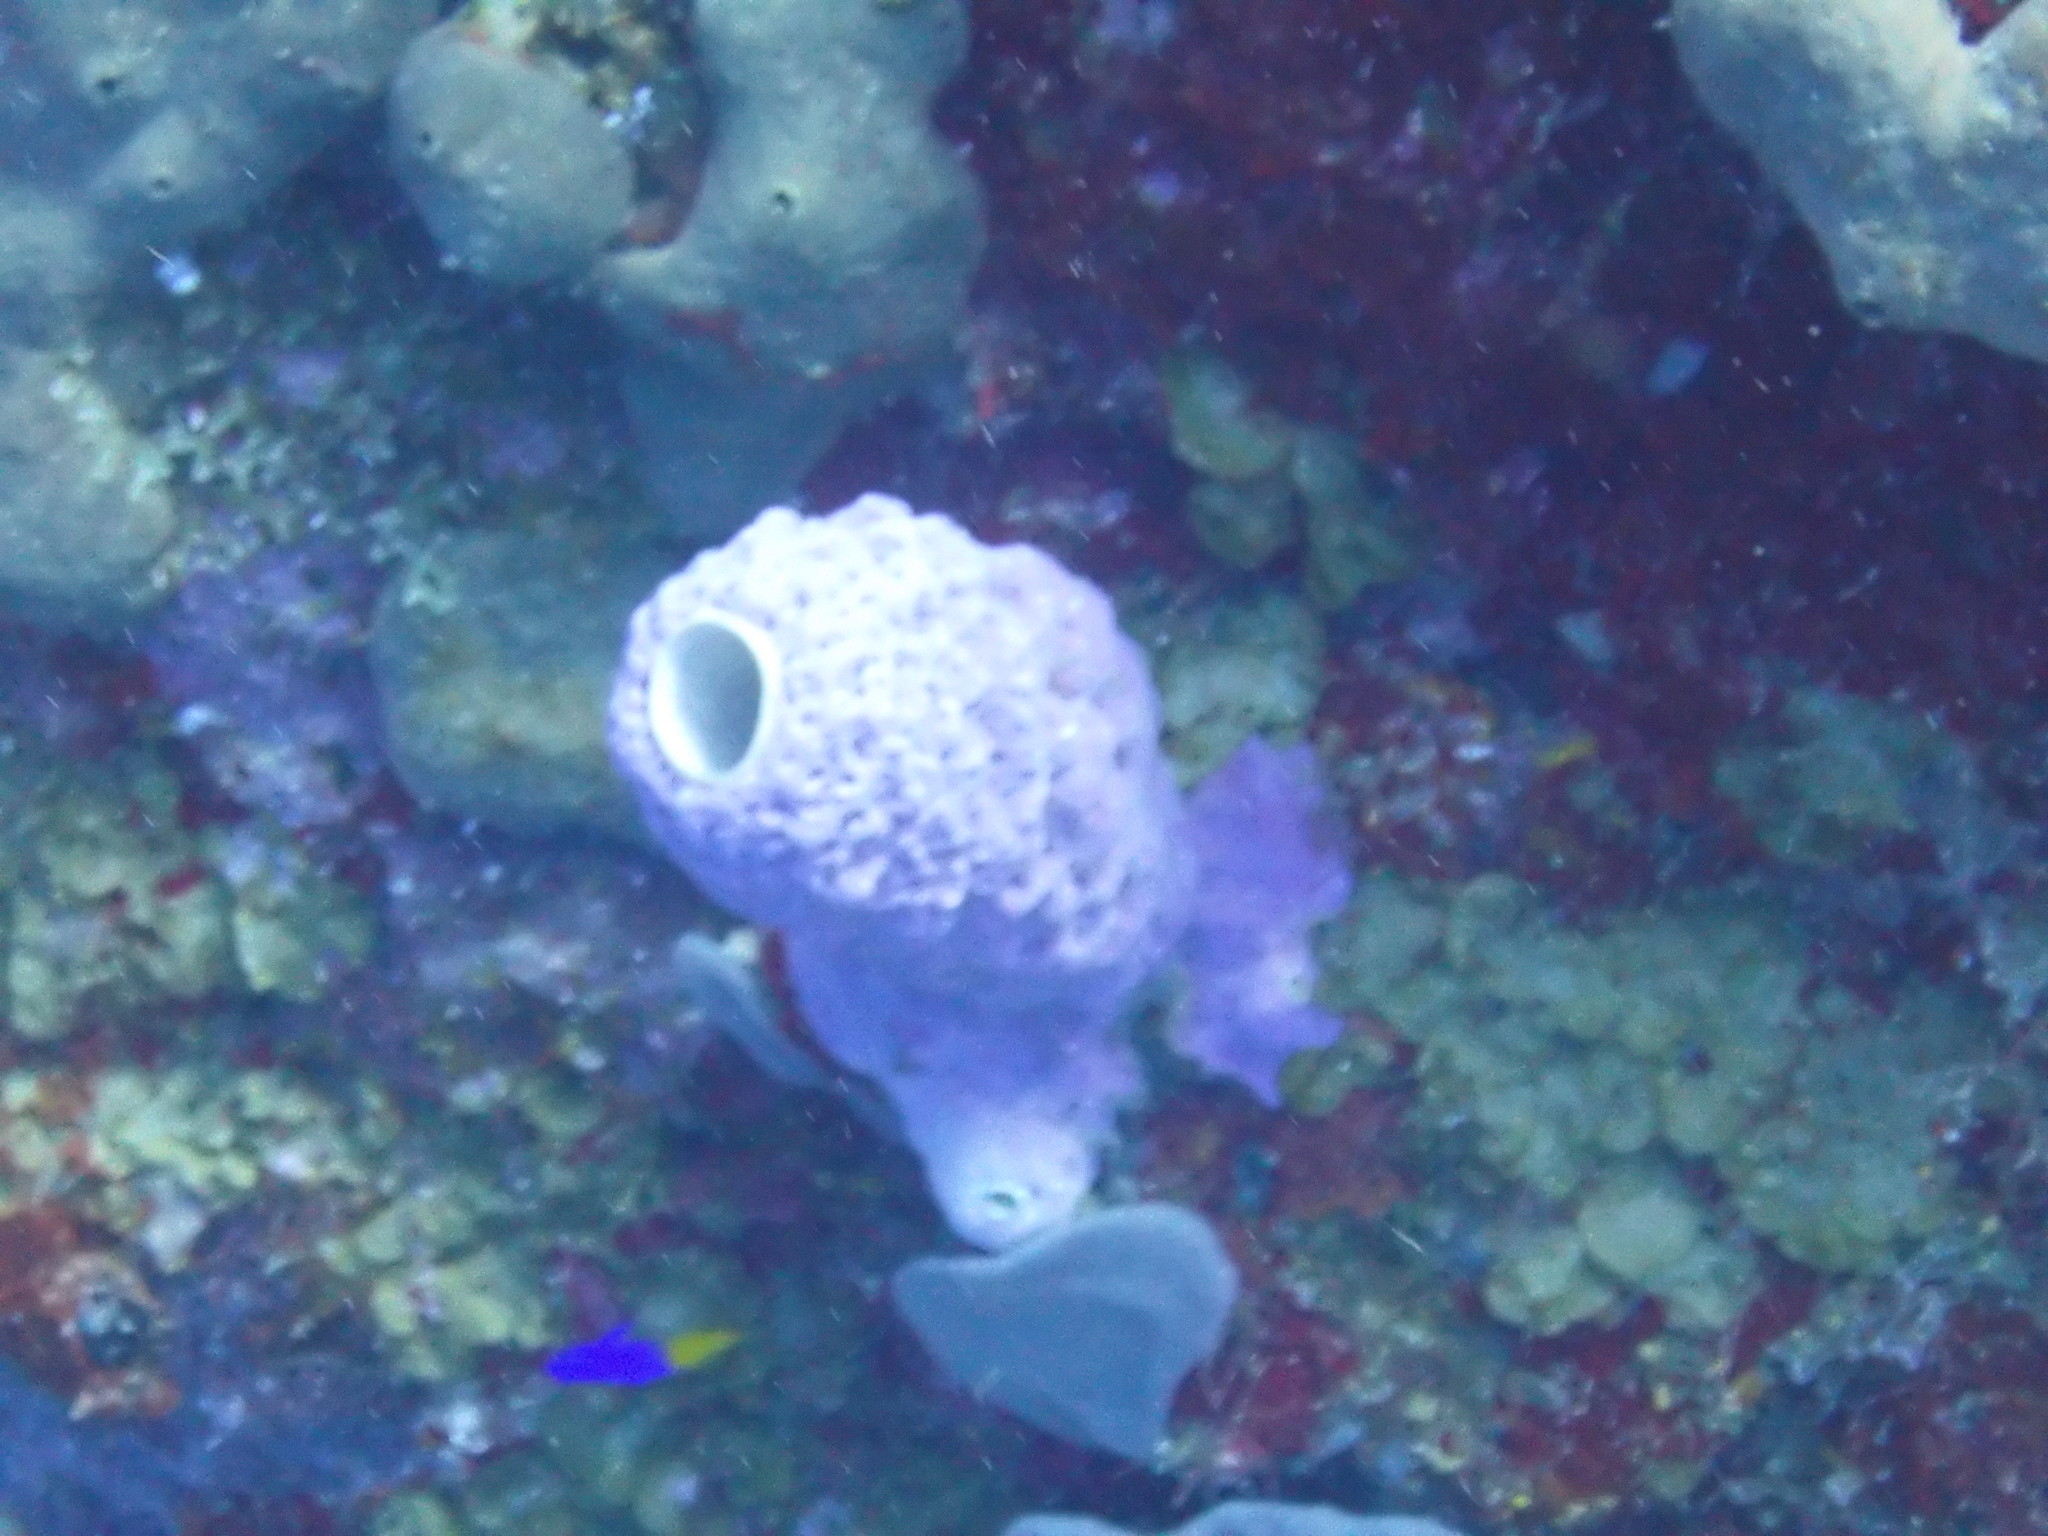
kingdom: Animalia
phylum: Porifera
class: Demospongiae
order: Verongiida
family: Aplysinidae
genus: Aplysina
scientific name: Aplysina archeri
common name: Stove-pipe sponge
